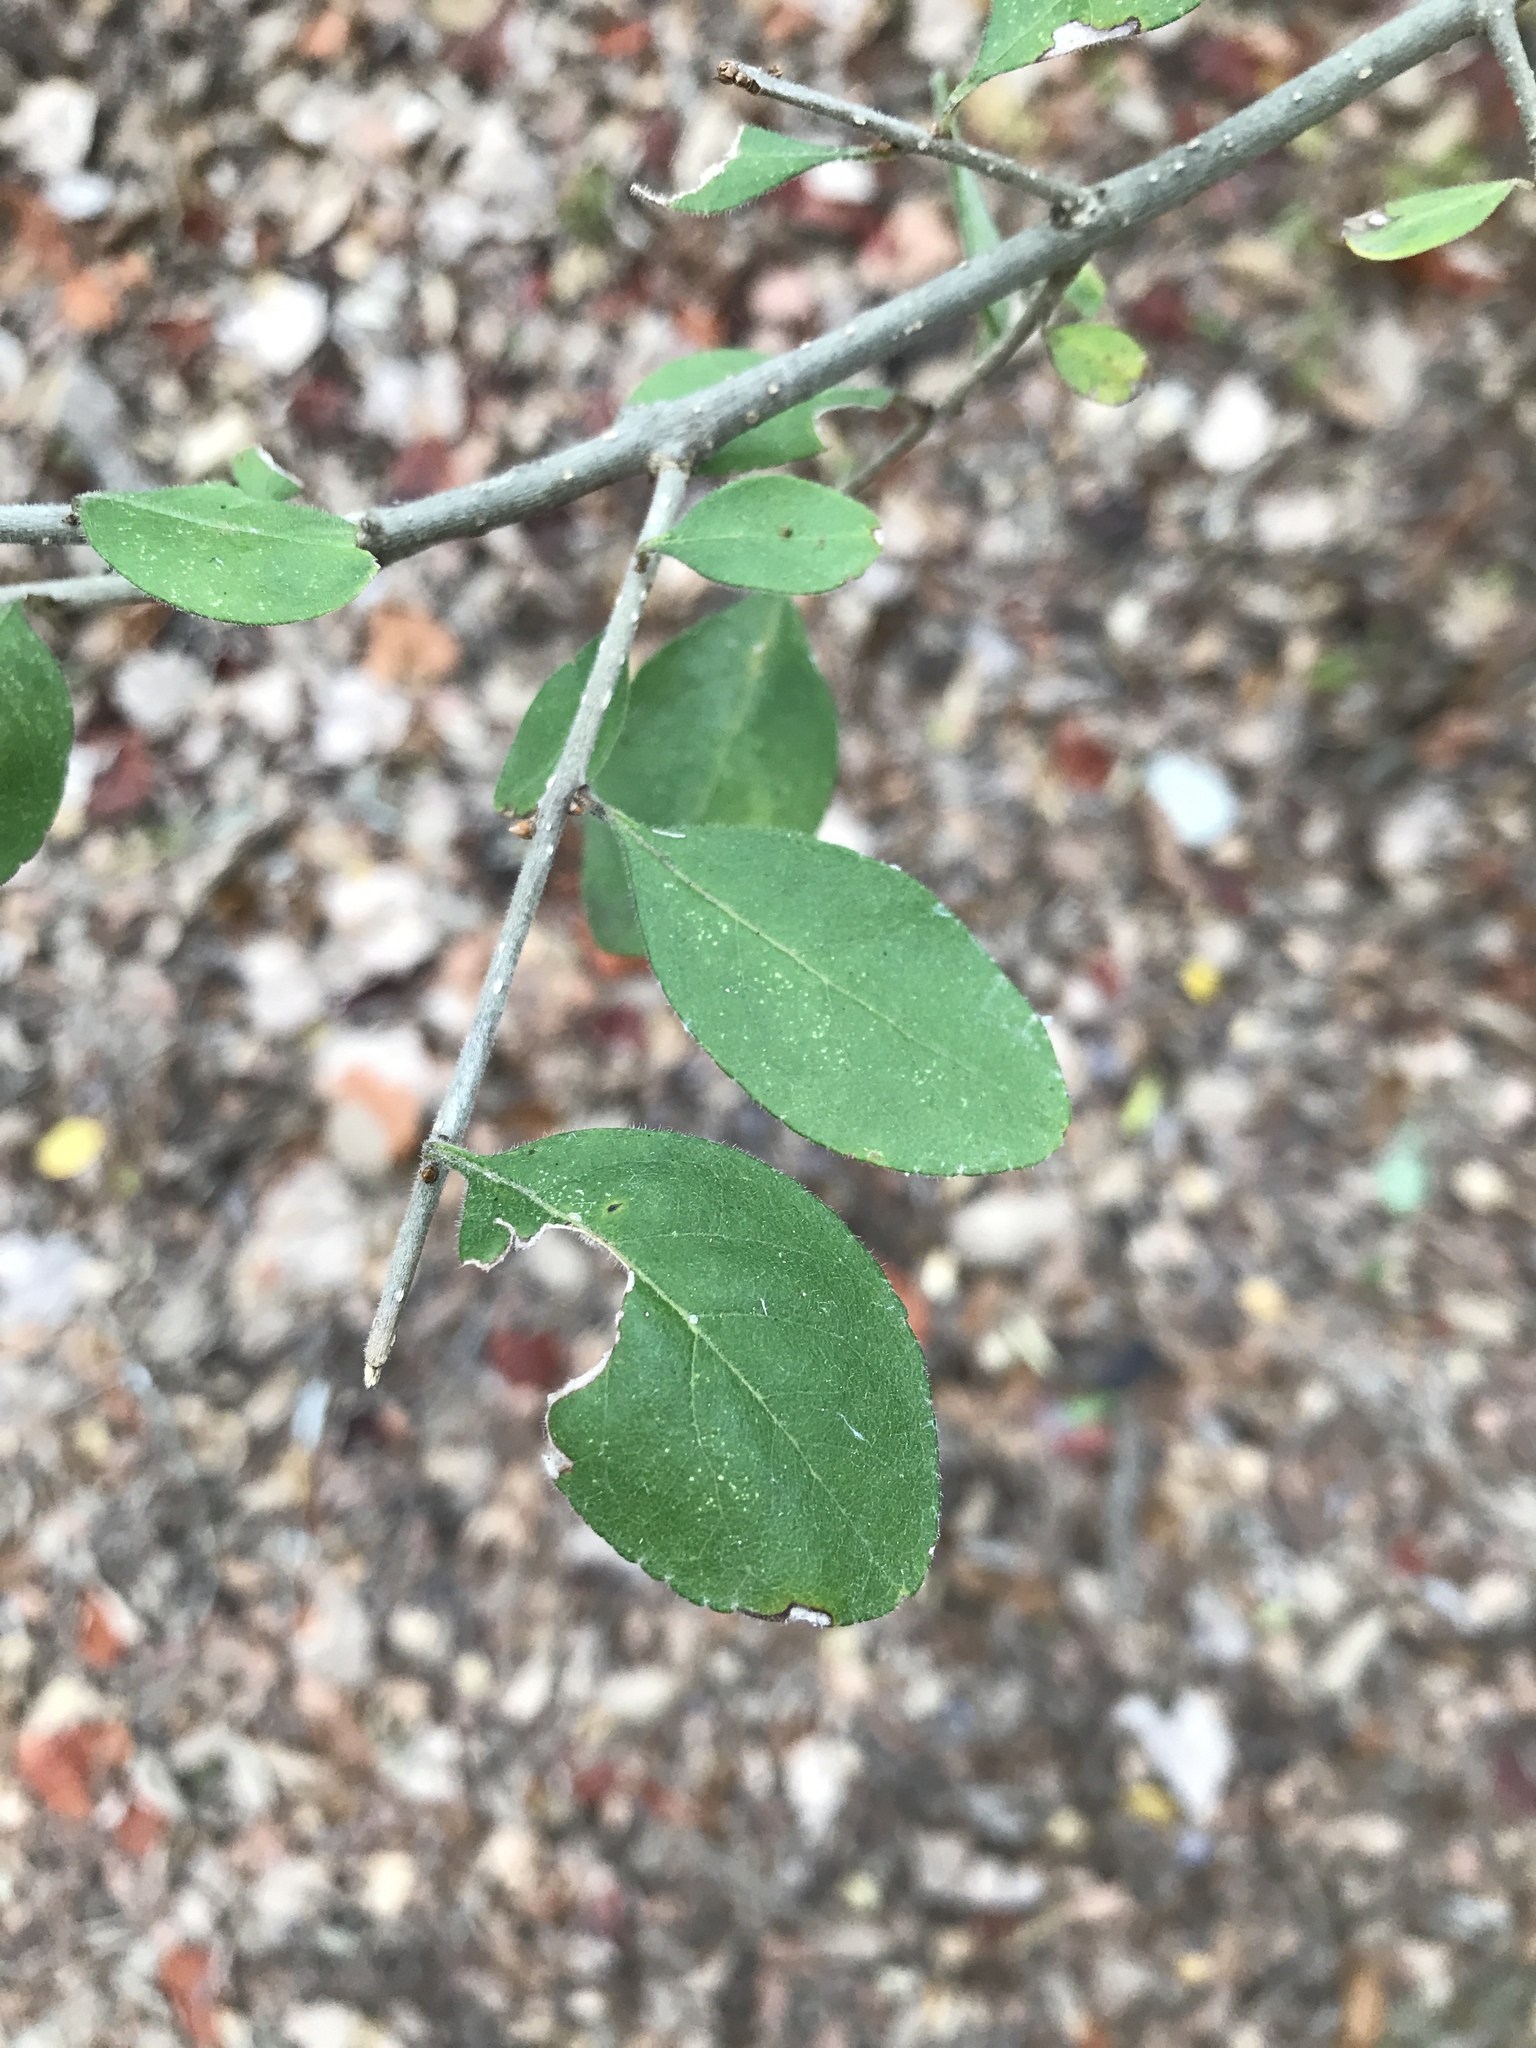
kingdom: Plantae
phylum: Tracheophyta
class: Magnoliopsida
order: Lamiales
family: Oleaceae
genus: Forestiera
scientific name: Forestiera pubescens
